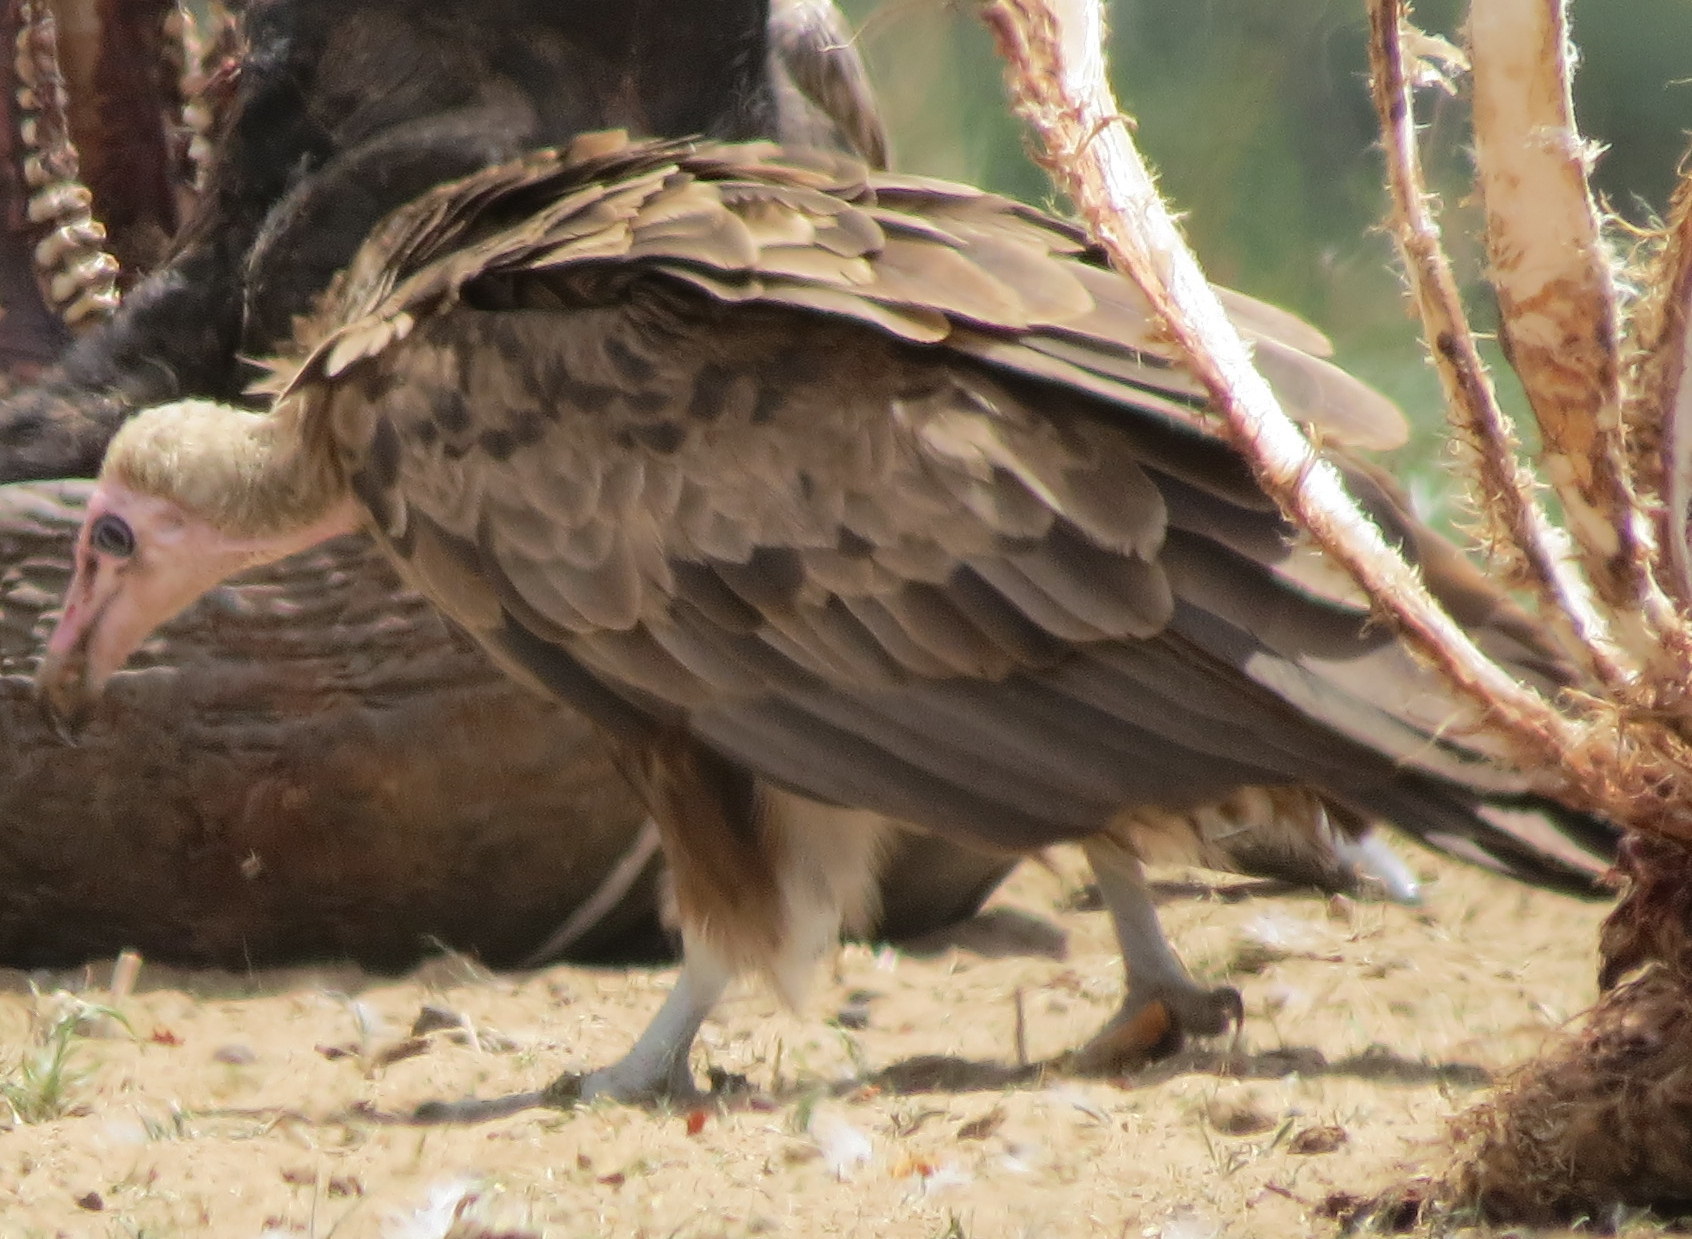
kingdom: Animalia
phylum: Chordata
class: Aves
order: Accipitriformes
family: Accipitridae
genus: Necrosyrtes
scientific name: Necrosyrtes monachus
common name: Hooded vulture
